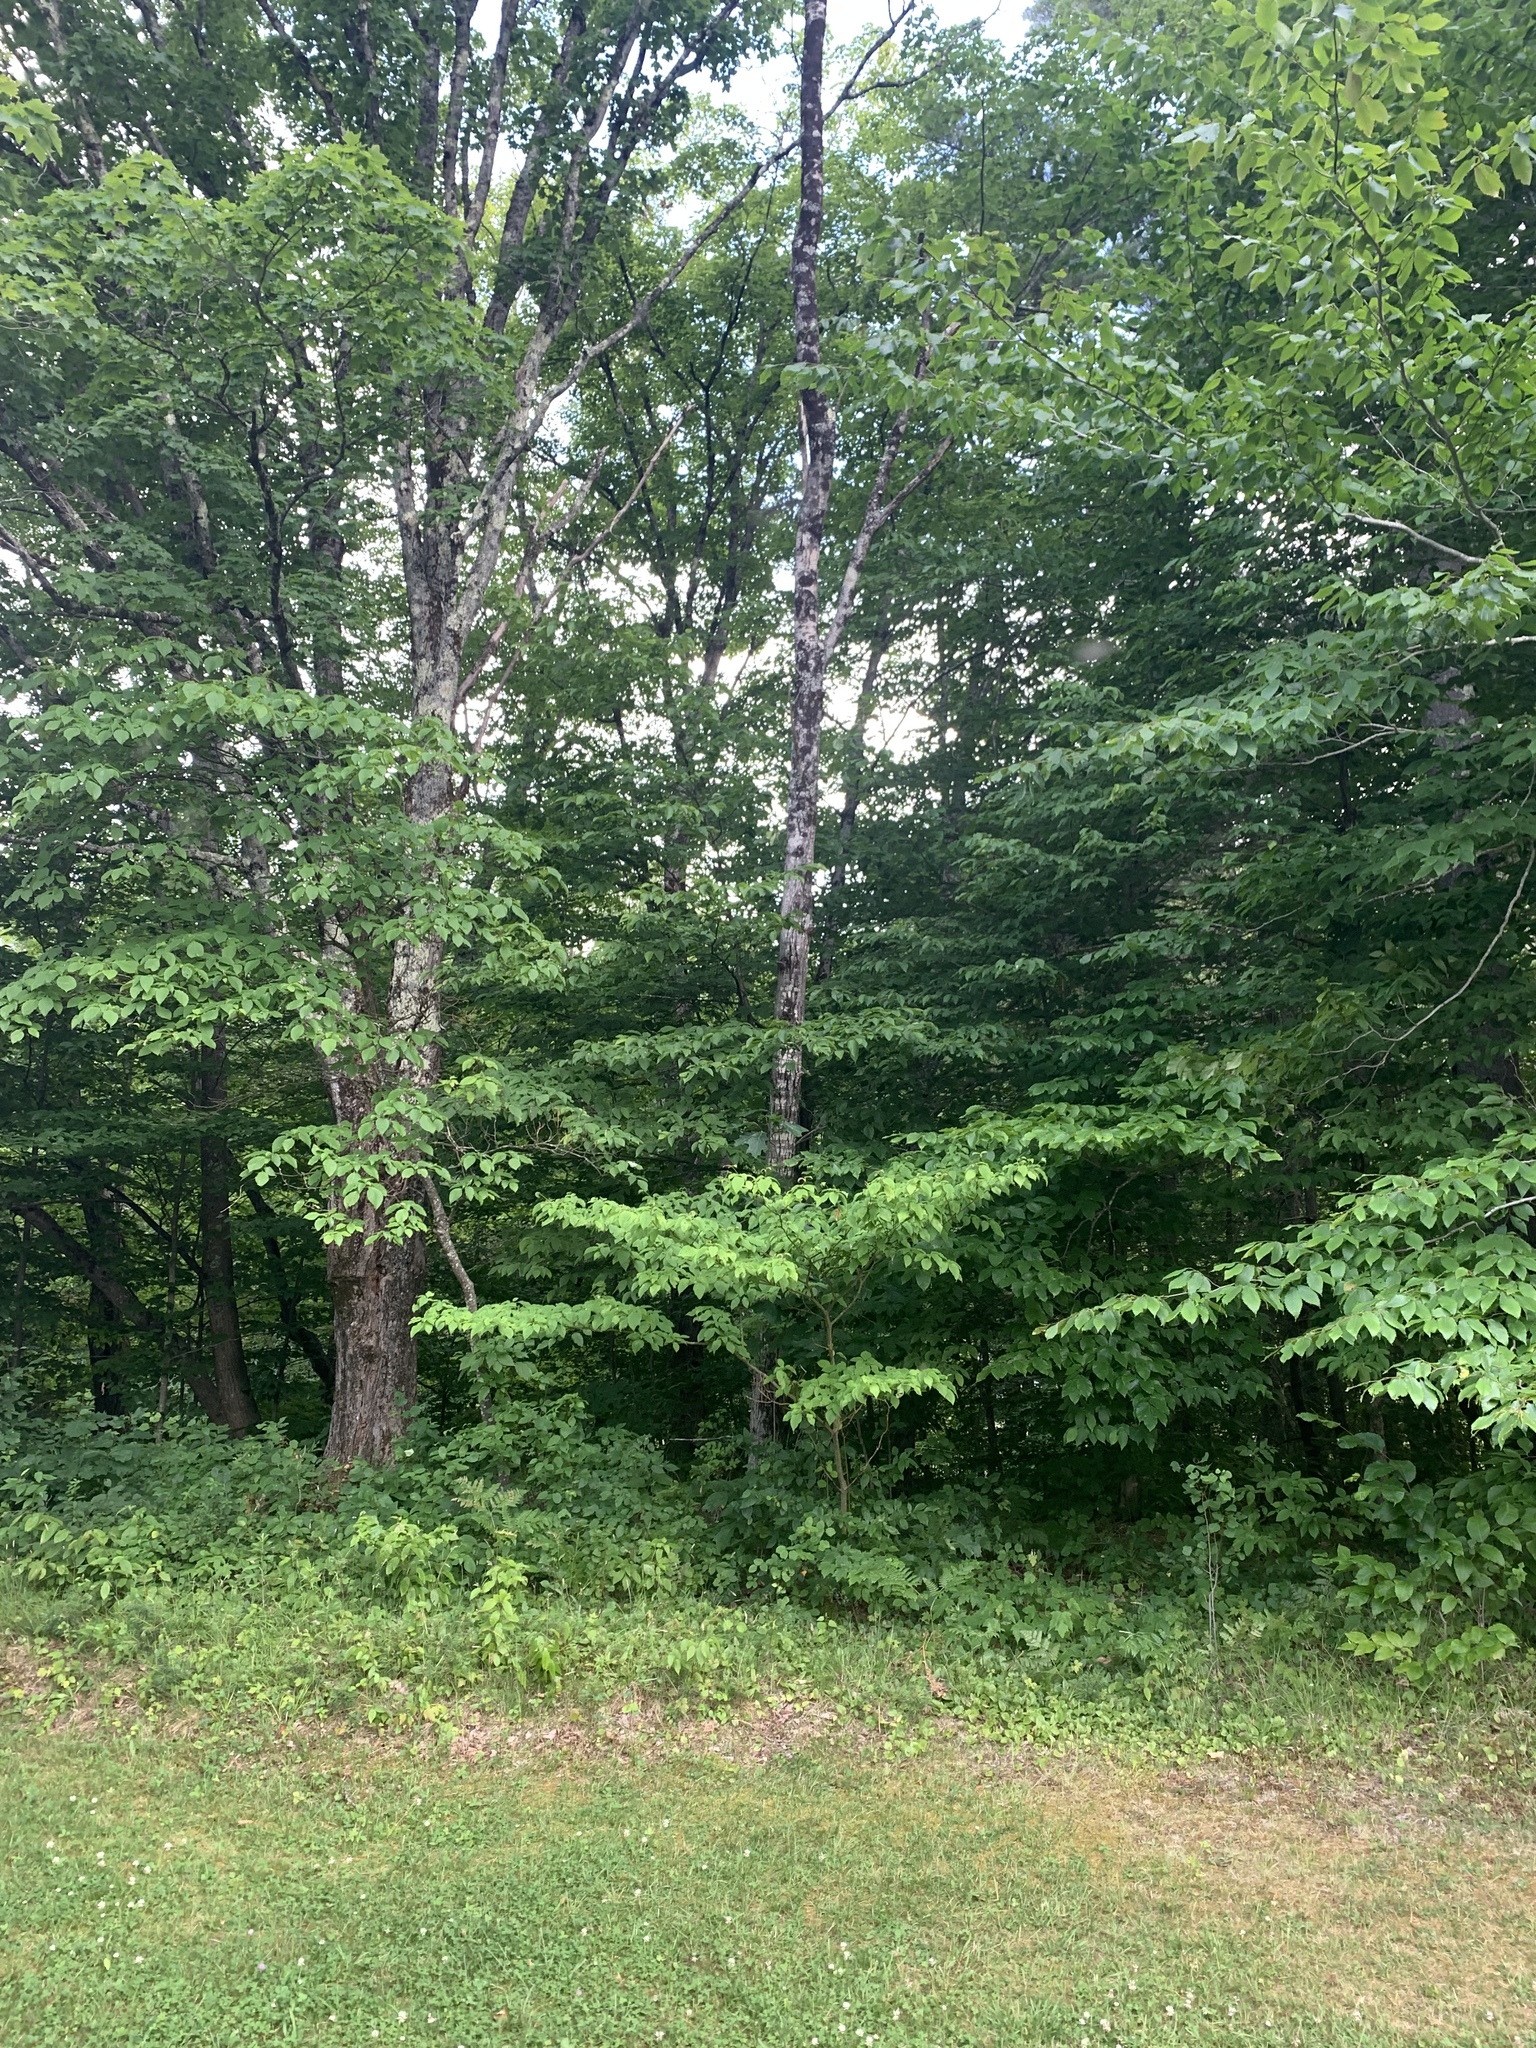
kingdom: Plantae
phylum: Tracheophyta
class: Magnoliopsida
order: Cornales
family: Cornaceae
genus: Cornus
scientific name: Cornus alternifolia
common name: Pagoda dogwood
